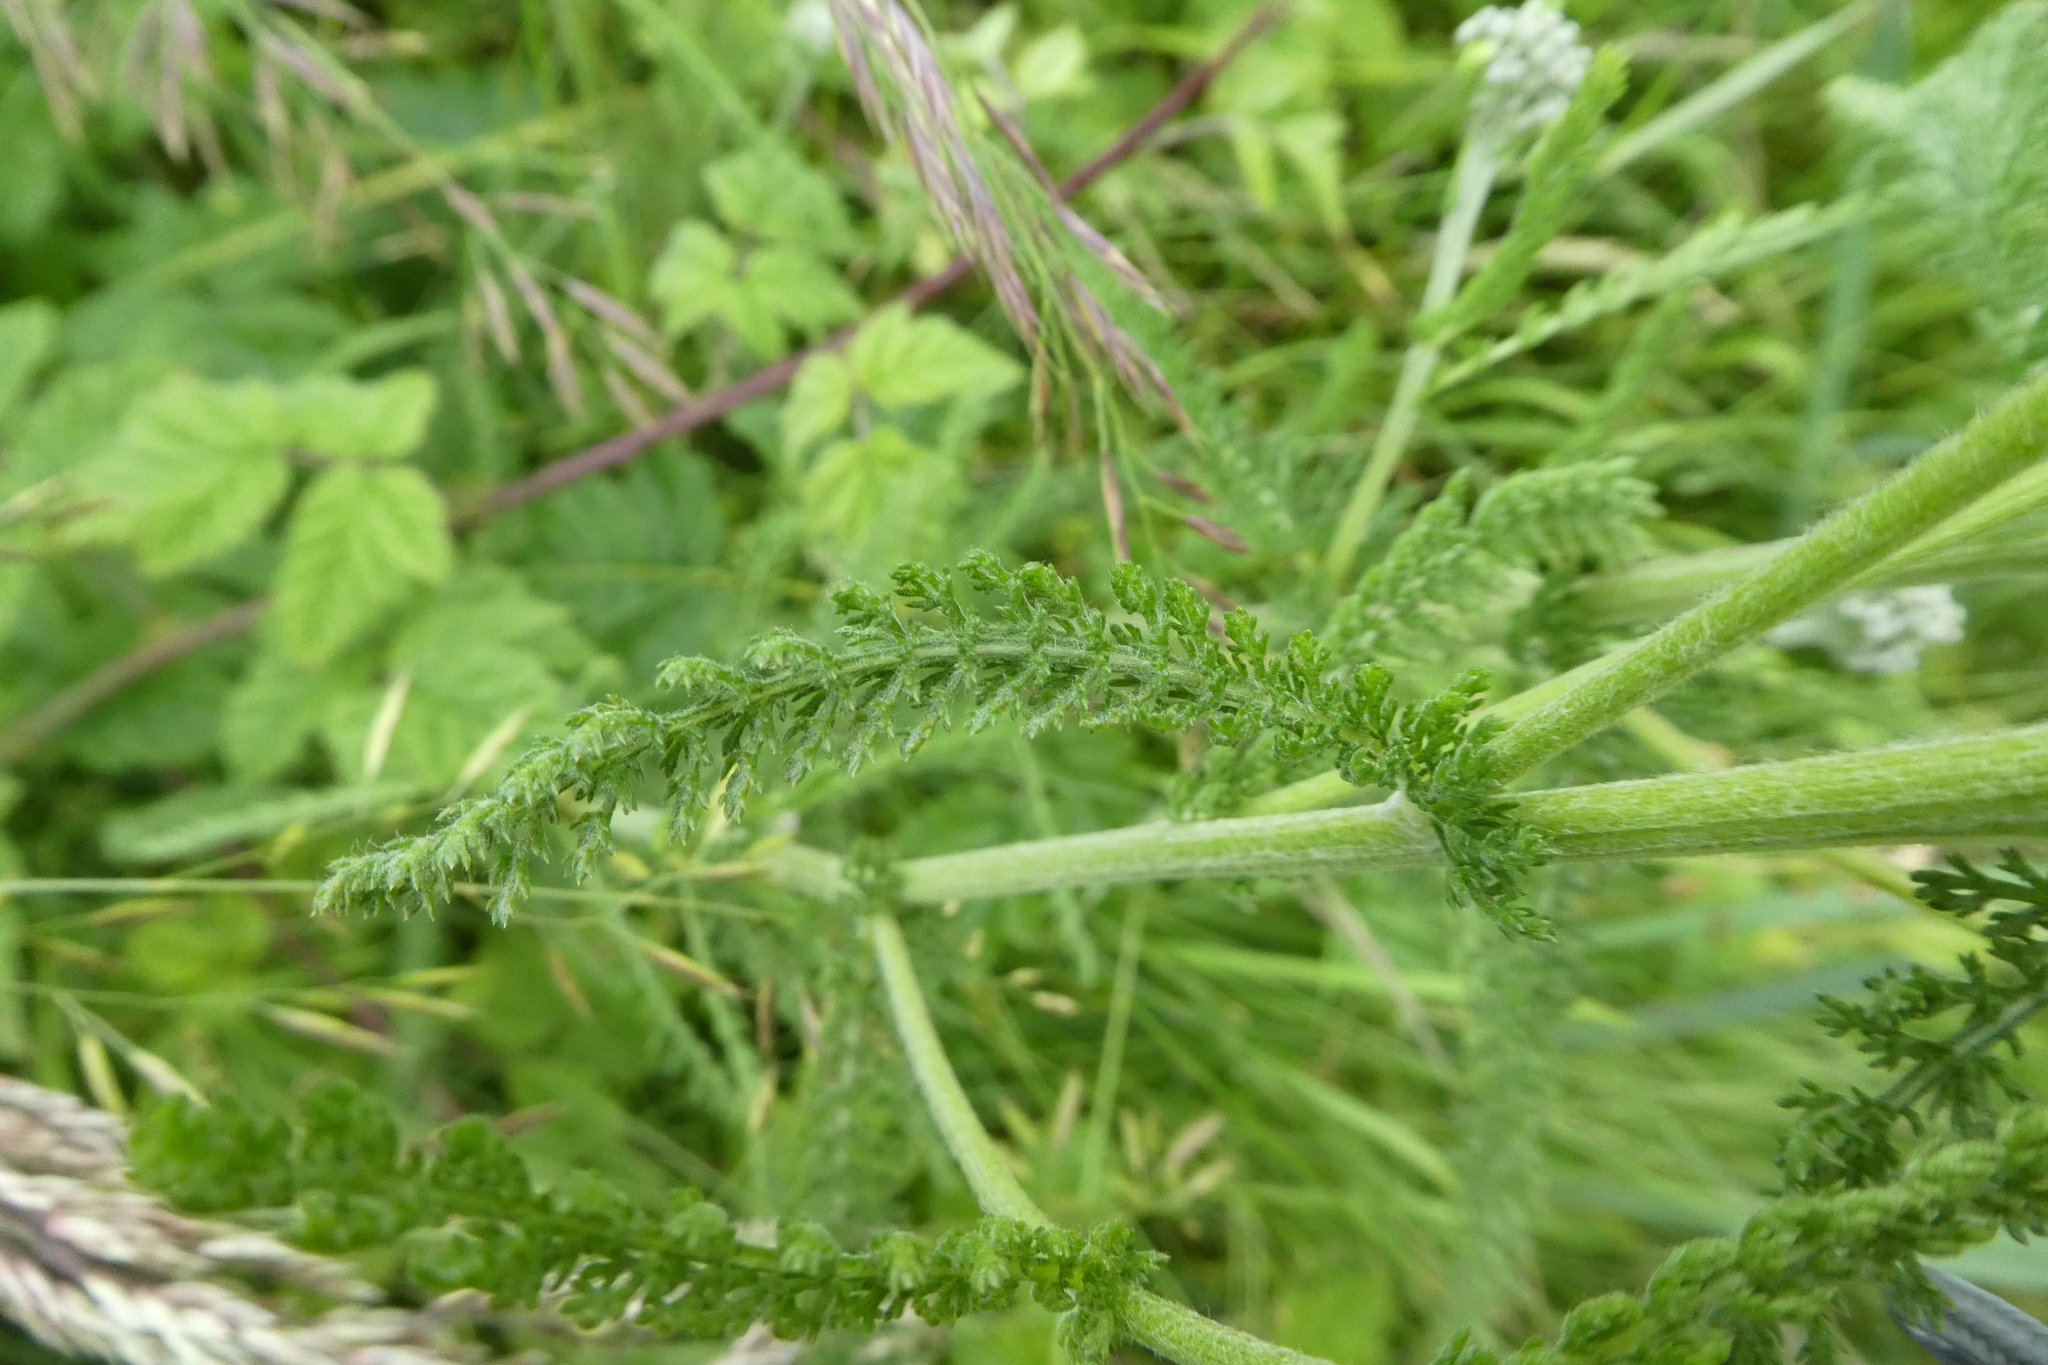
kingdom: Plantae
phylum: Tracheophyta
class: Magnoliopsida
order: Asterales
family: Asteraceae
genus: Achillea
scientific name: Achillea millefolium
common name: Yarrow
